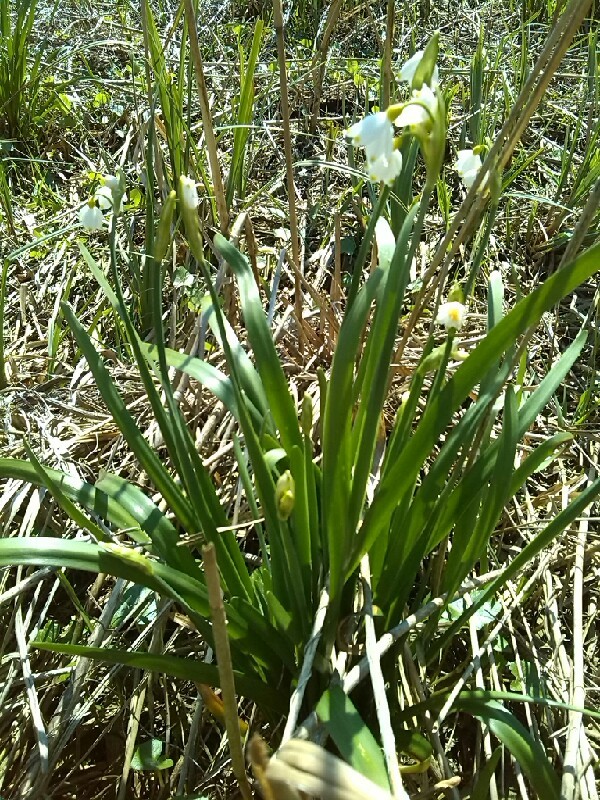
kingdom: Plantae
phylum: Tracheophyta
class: Liliopsida
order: Asparagales
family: Amaryllidaceae
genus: Leucojum
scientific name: Leucojum aestivum
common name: Summer snowflake
